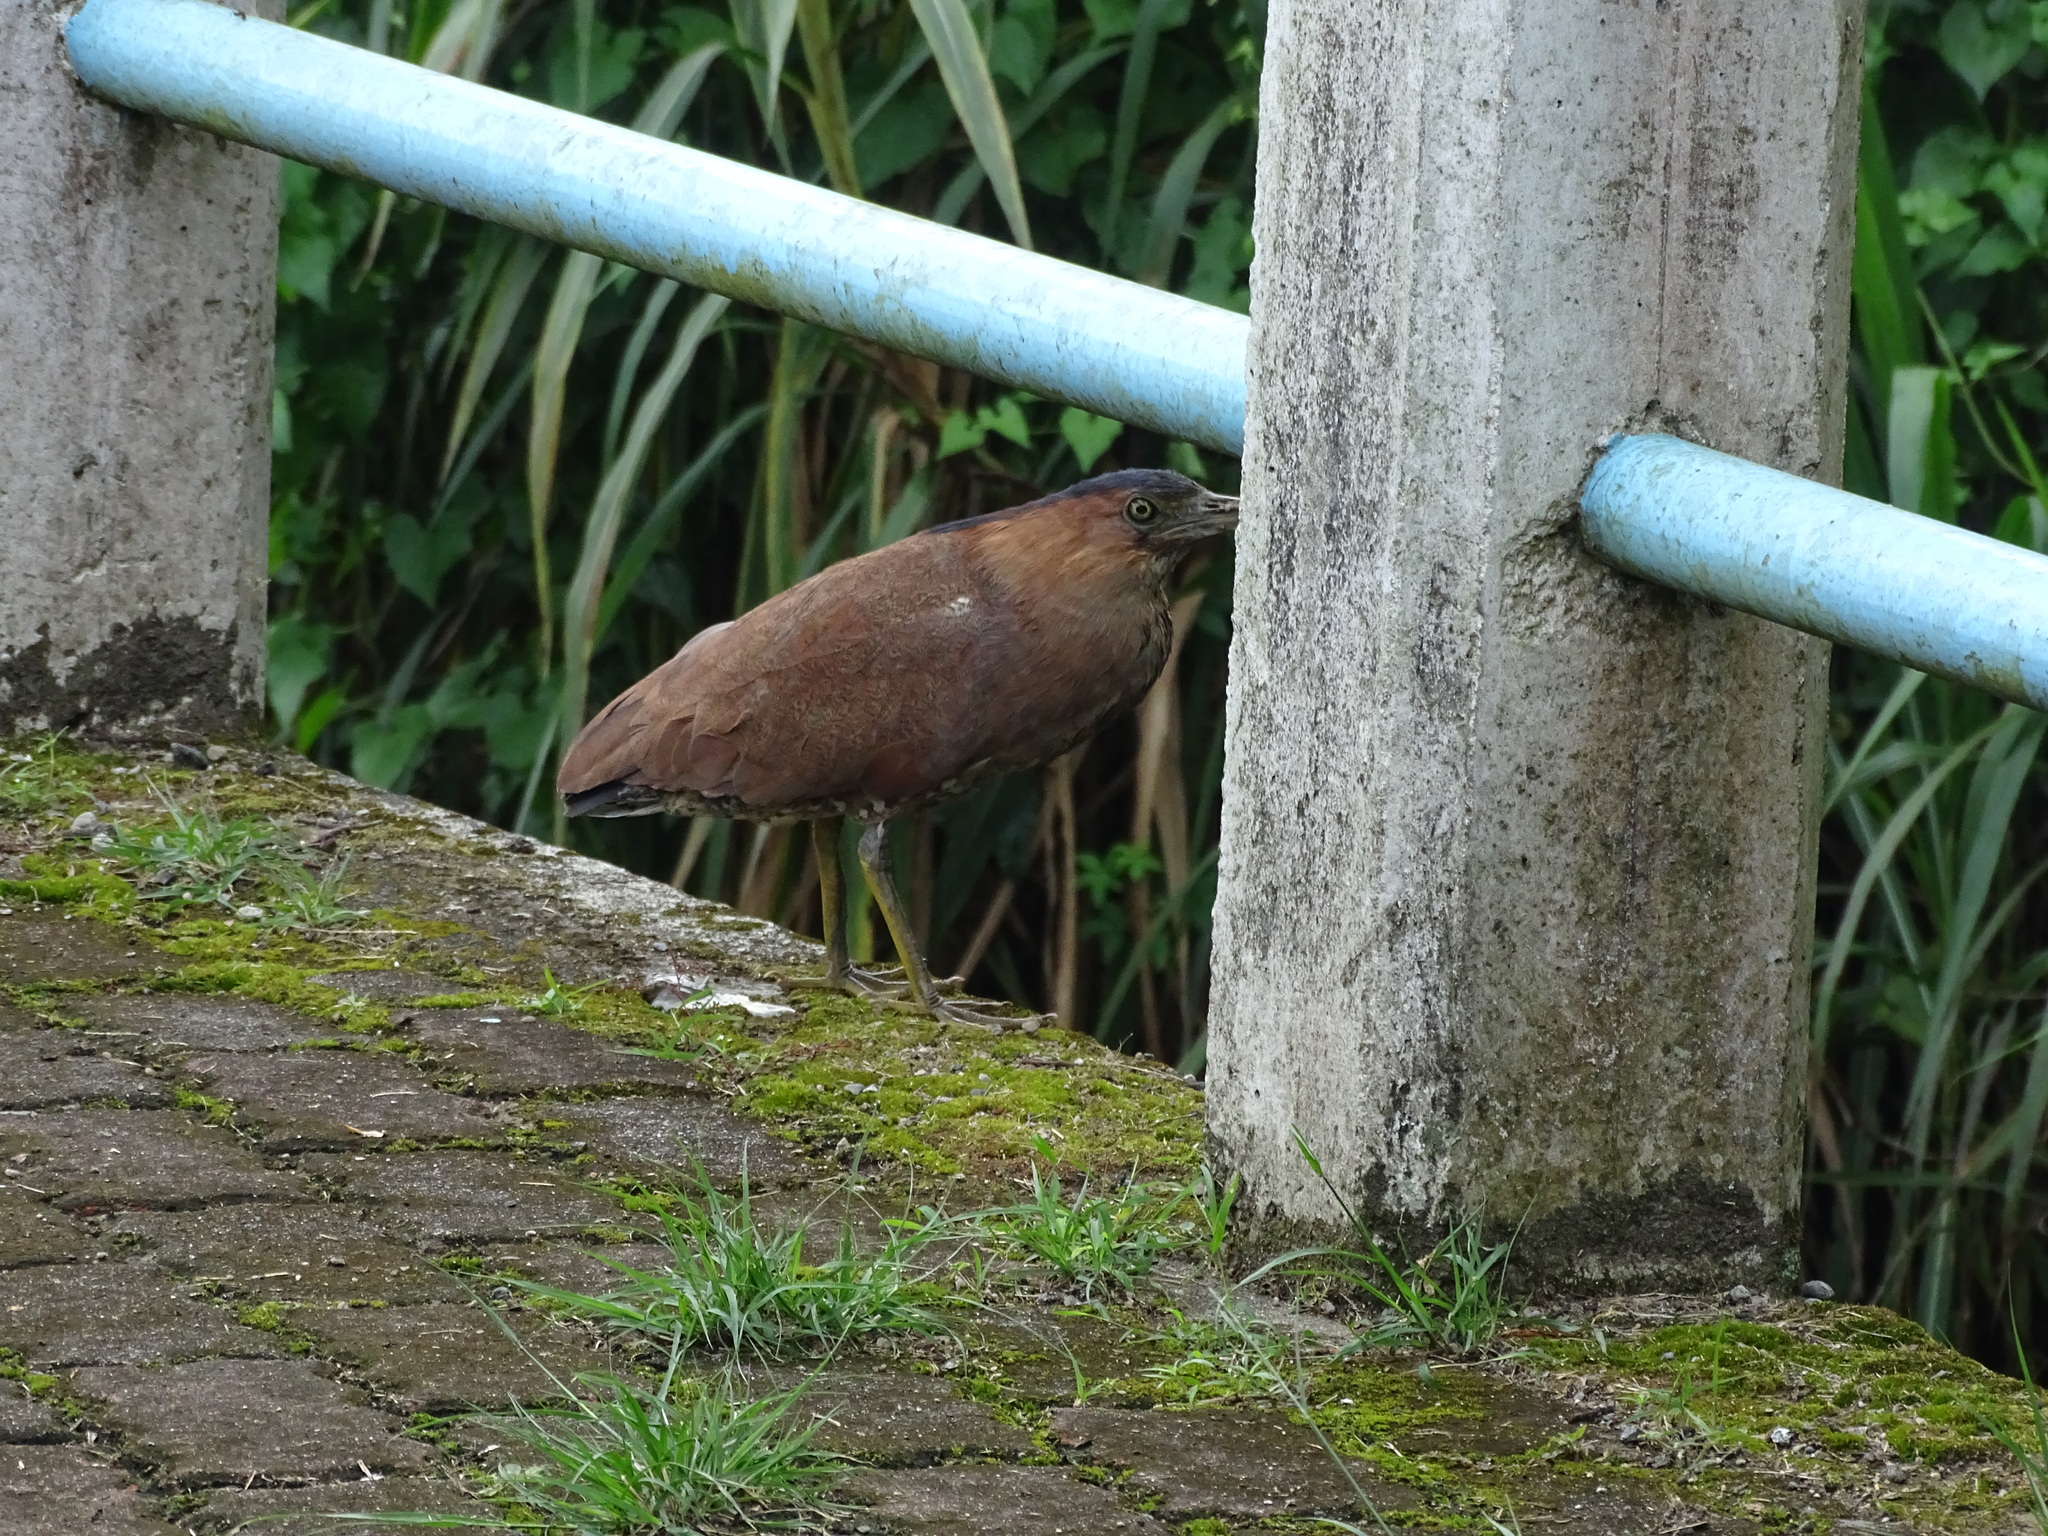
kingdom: Animalia
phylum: Chordata
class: Aves
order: Pelecaniformes
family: Ardeidae
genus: Gorsachius
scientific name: Gorsachius melanolophus
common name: Malayan night heron
